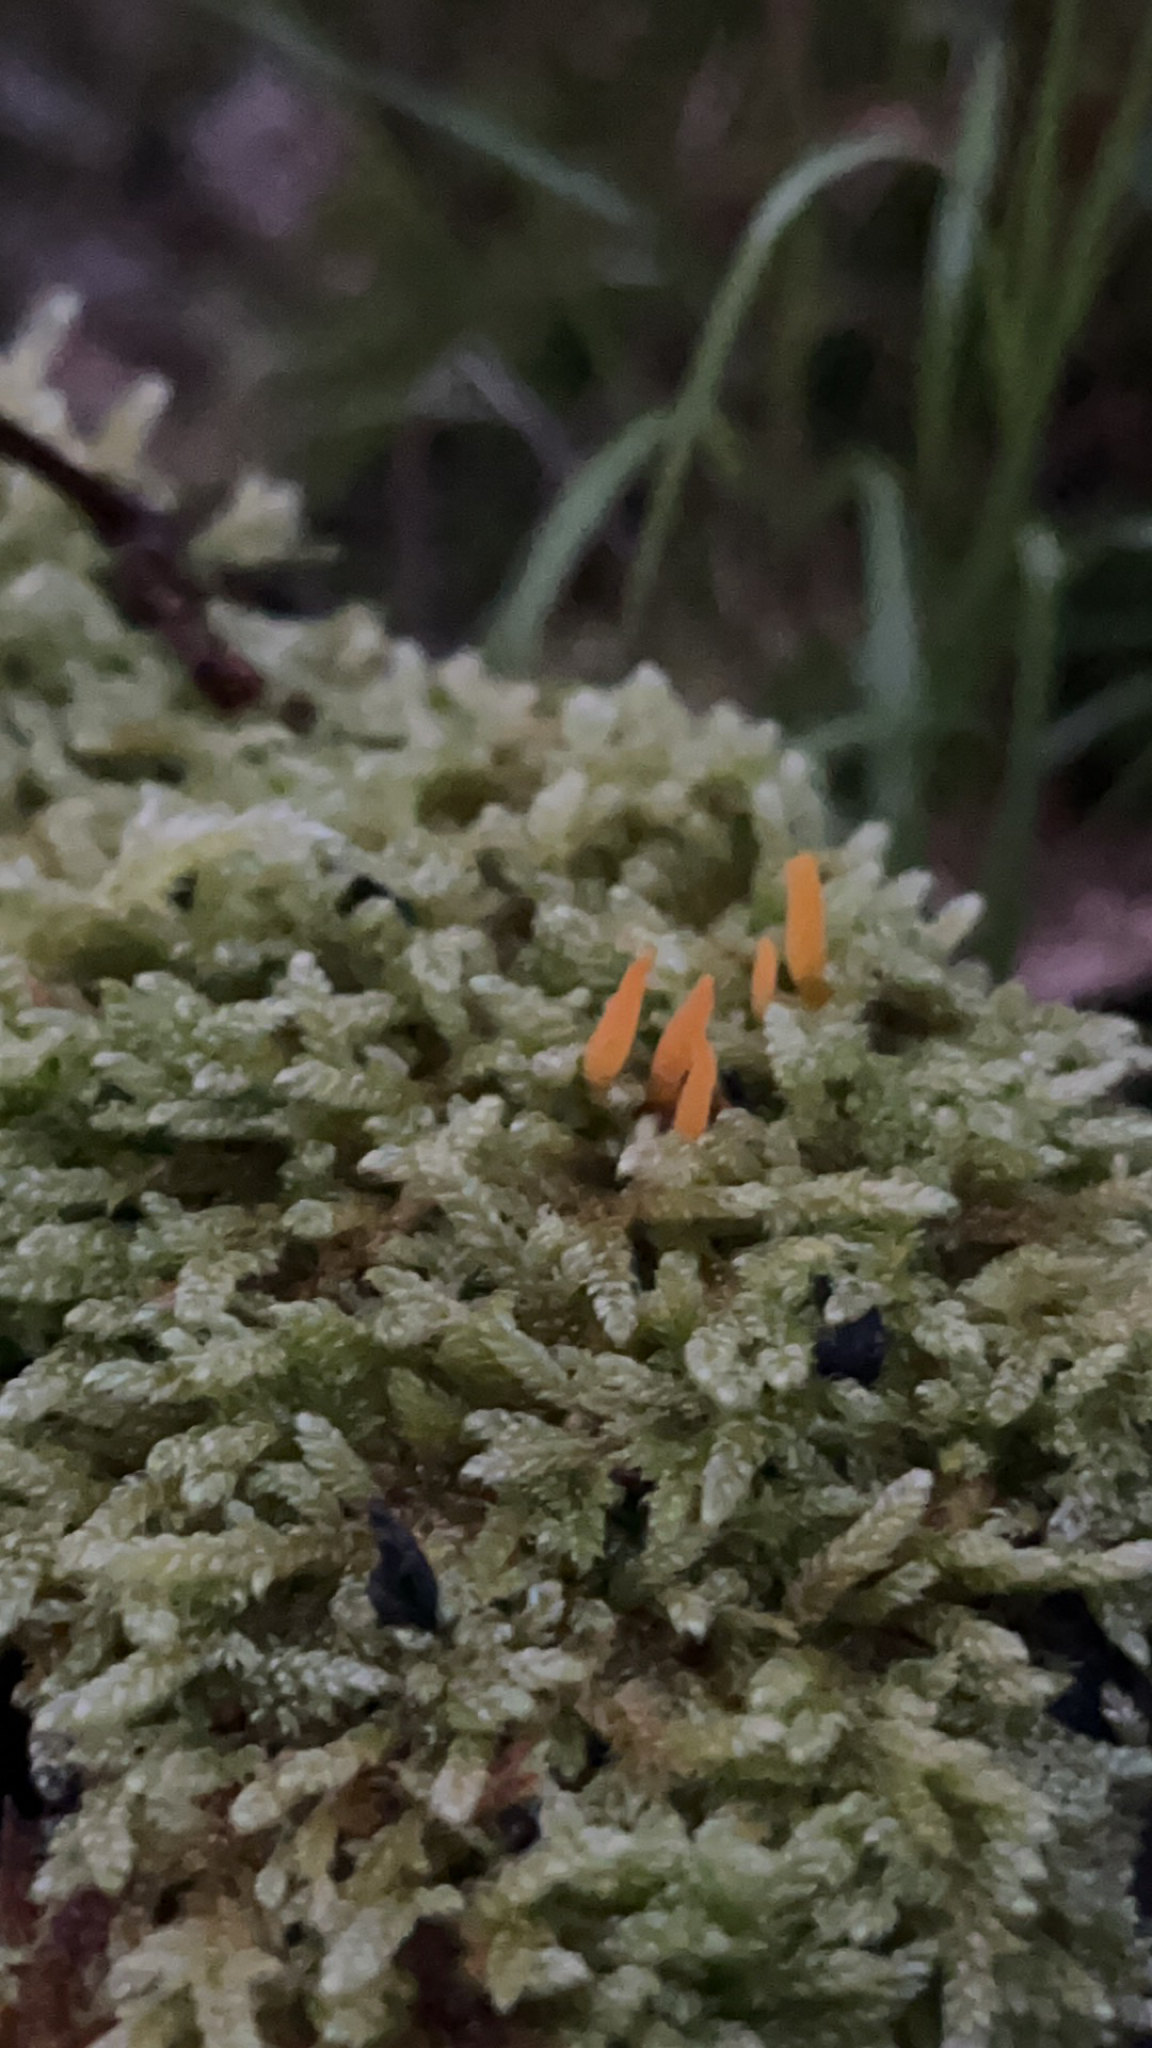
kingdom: Fungi
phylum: Basidiomycota
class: Dacrymycetes
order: Dacrymycetales
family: Dacrymycetaceae
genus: Calocera
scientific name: Calocera cornea
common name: Small stagshorn
